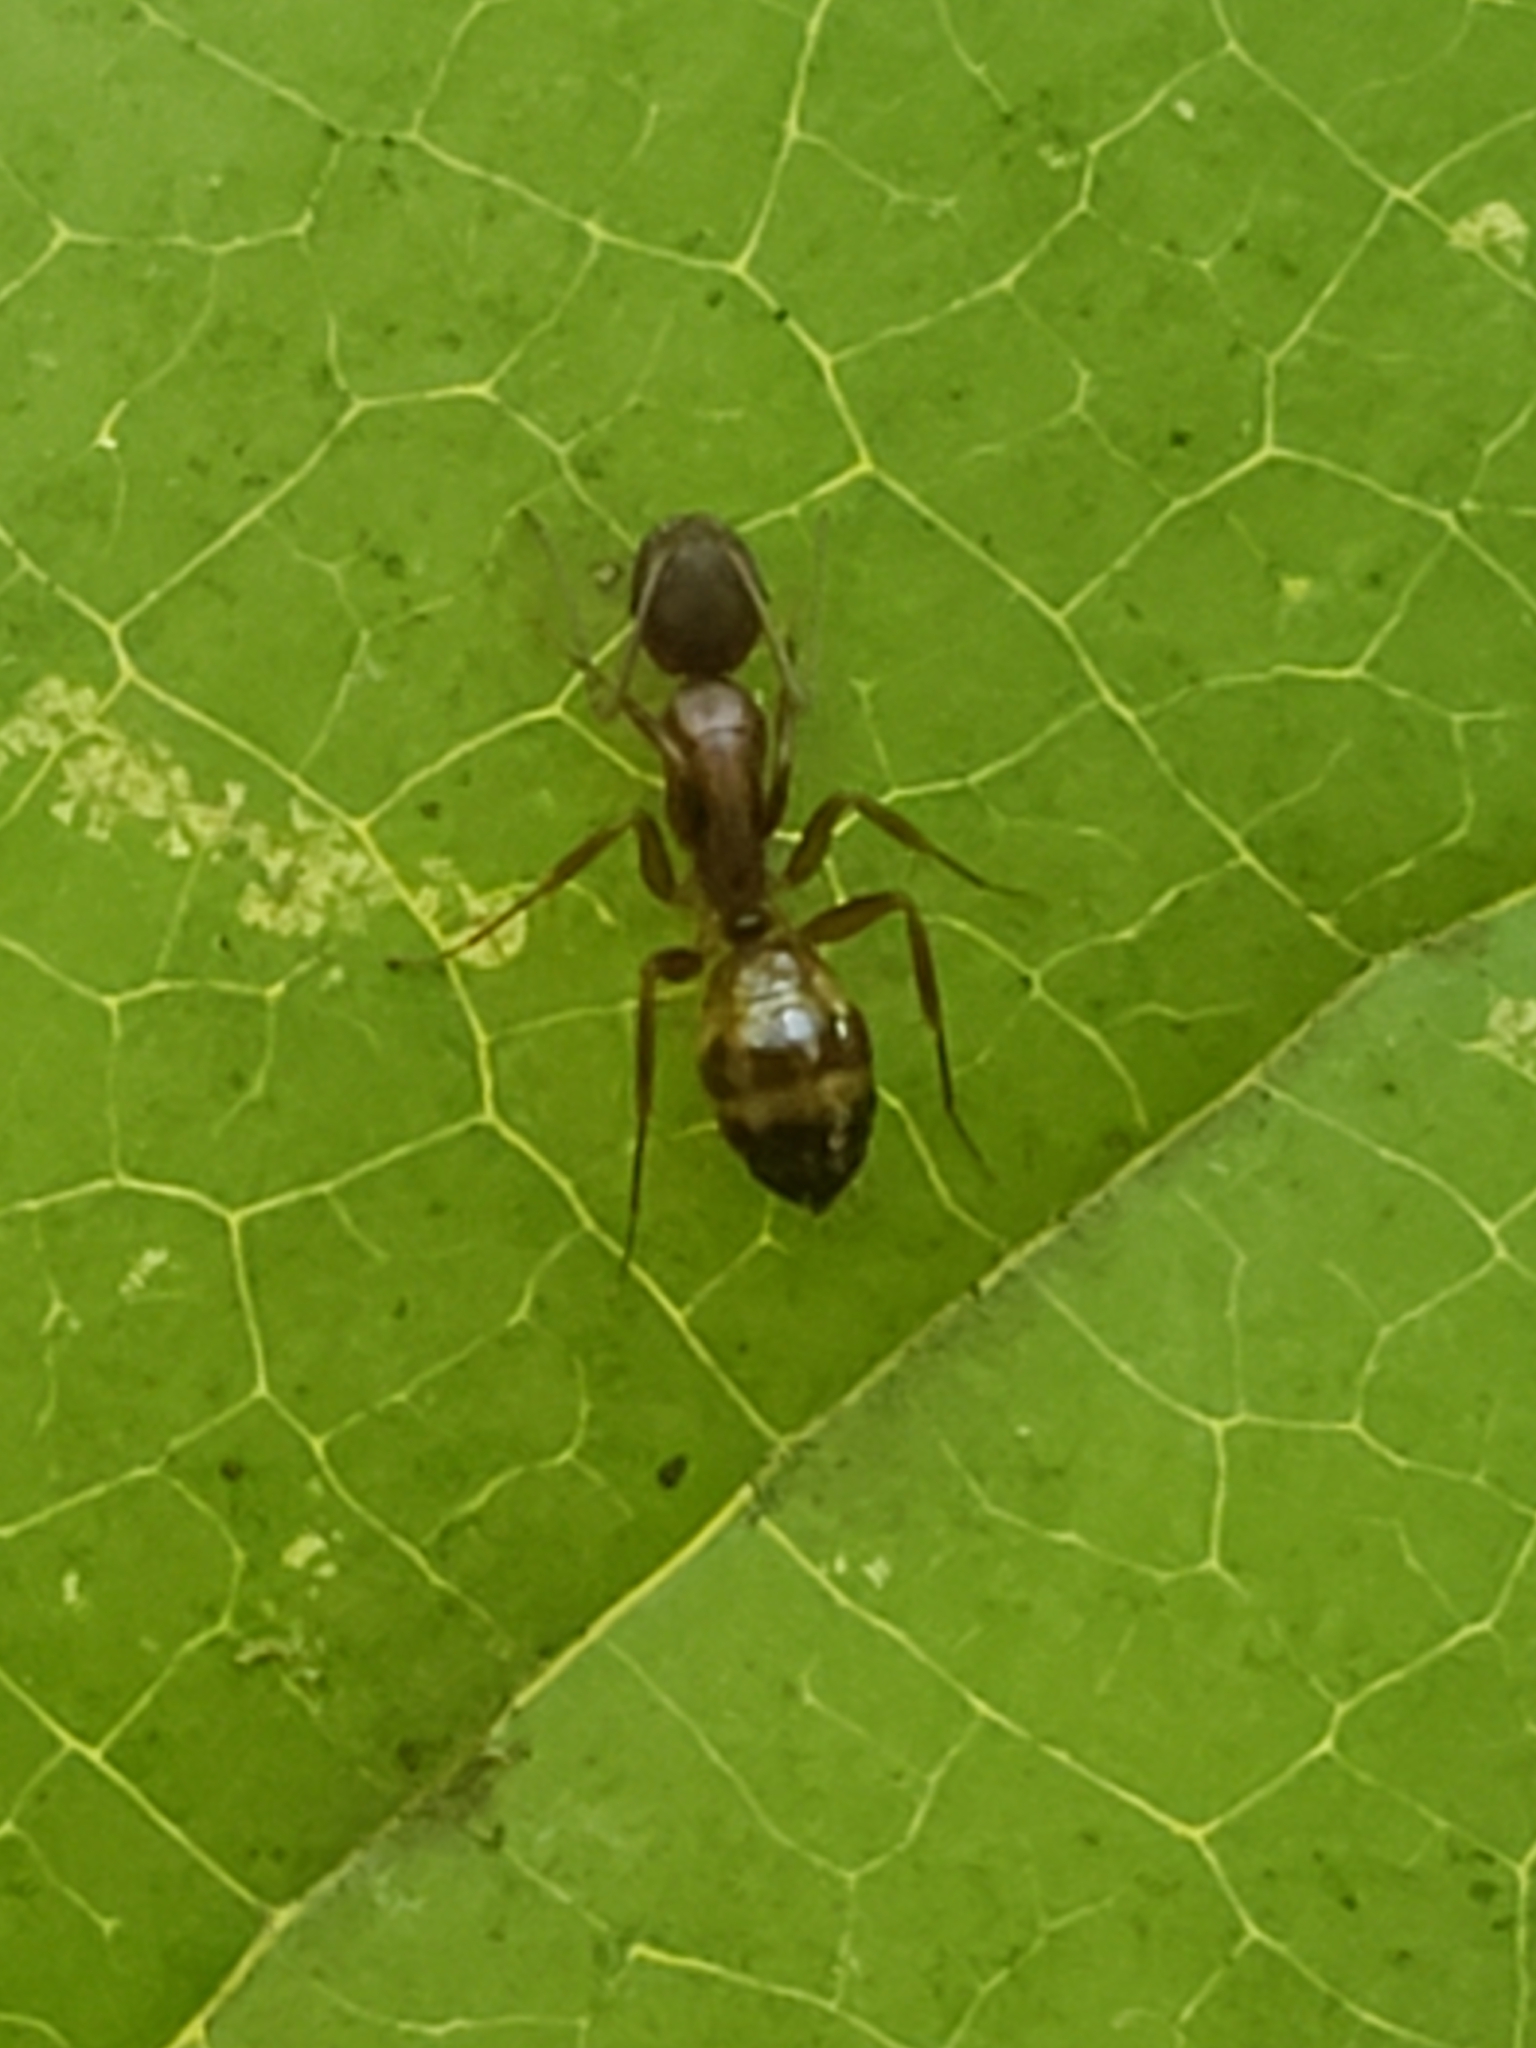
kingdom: Animalia
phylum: Arthropoda
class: Insecta
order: Hymenoptera
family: Formicidae
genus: Camponotus
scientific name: Camponotus subbarbatus
